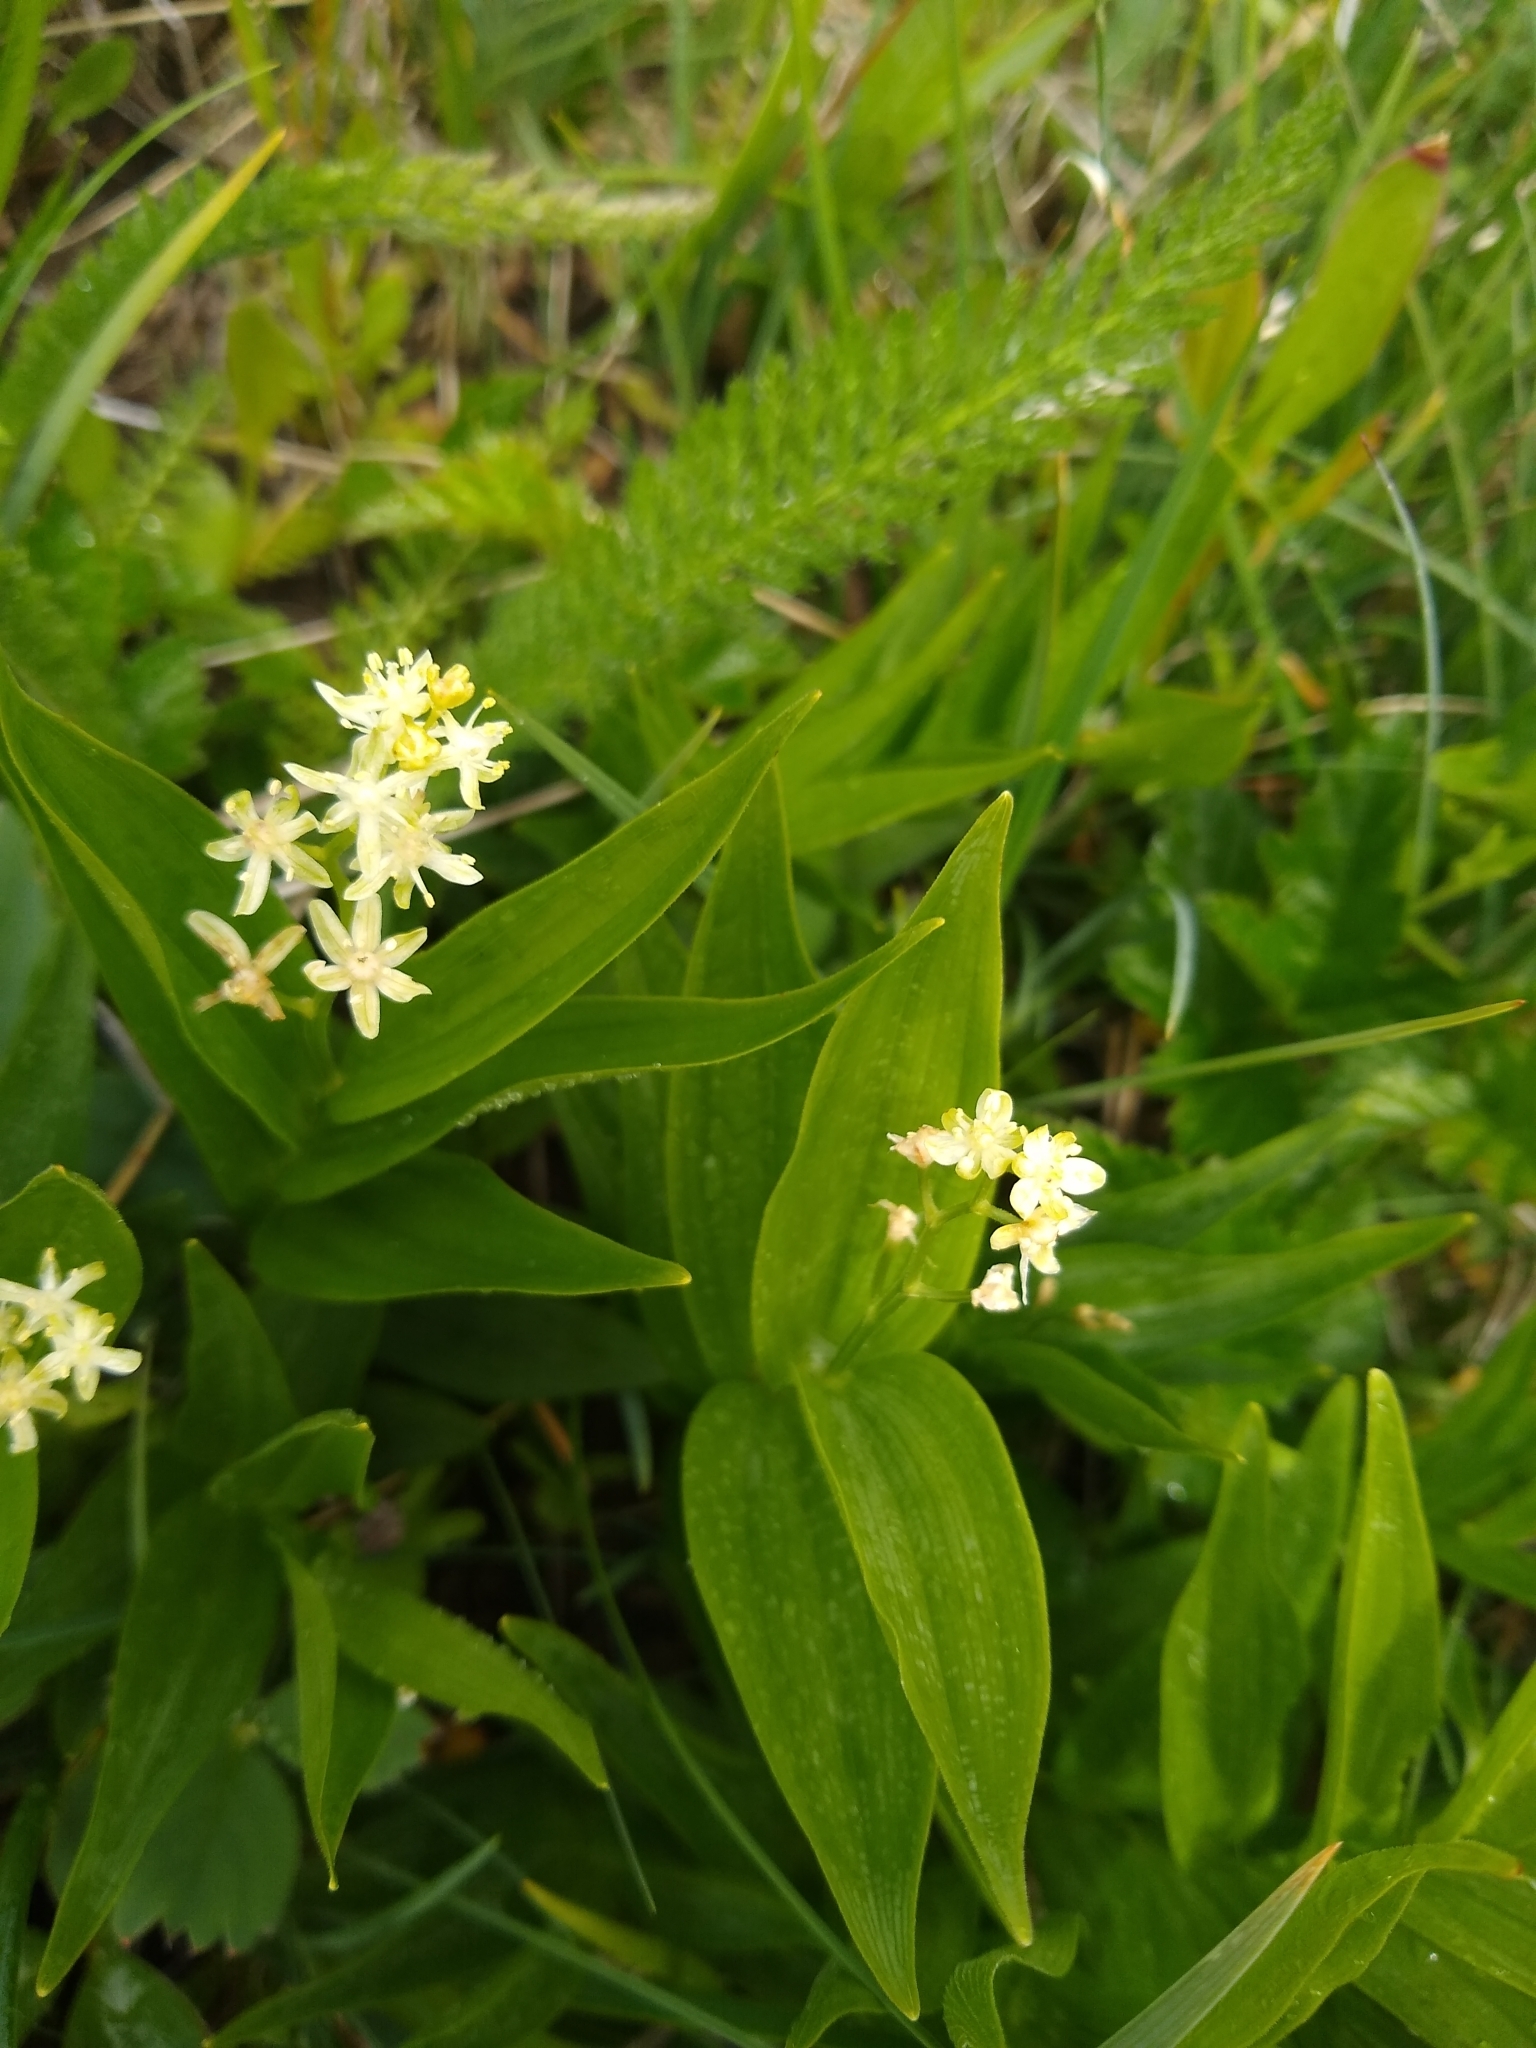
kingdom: Plantae
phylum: Tracheophyta
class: Liliopsida
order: Asparagales
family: Asparagaceae
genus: Maianthemum
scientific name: Maianthemum stellatum
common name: Little false solomon's seal
